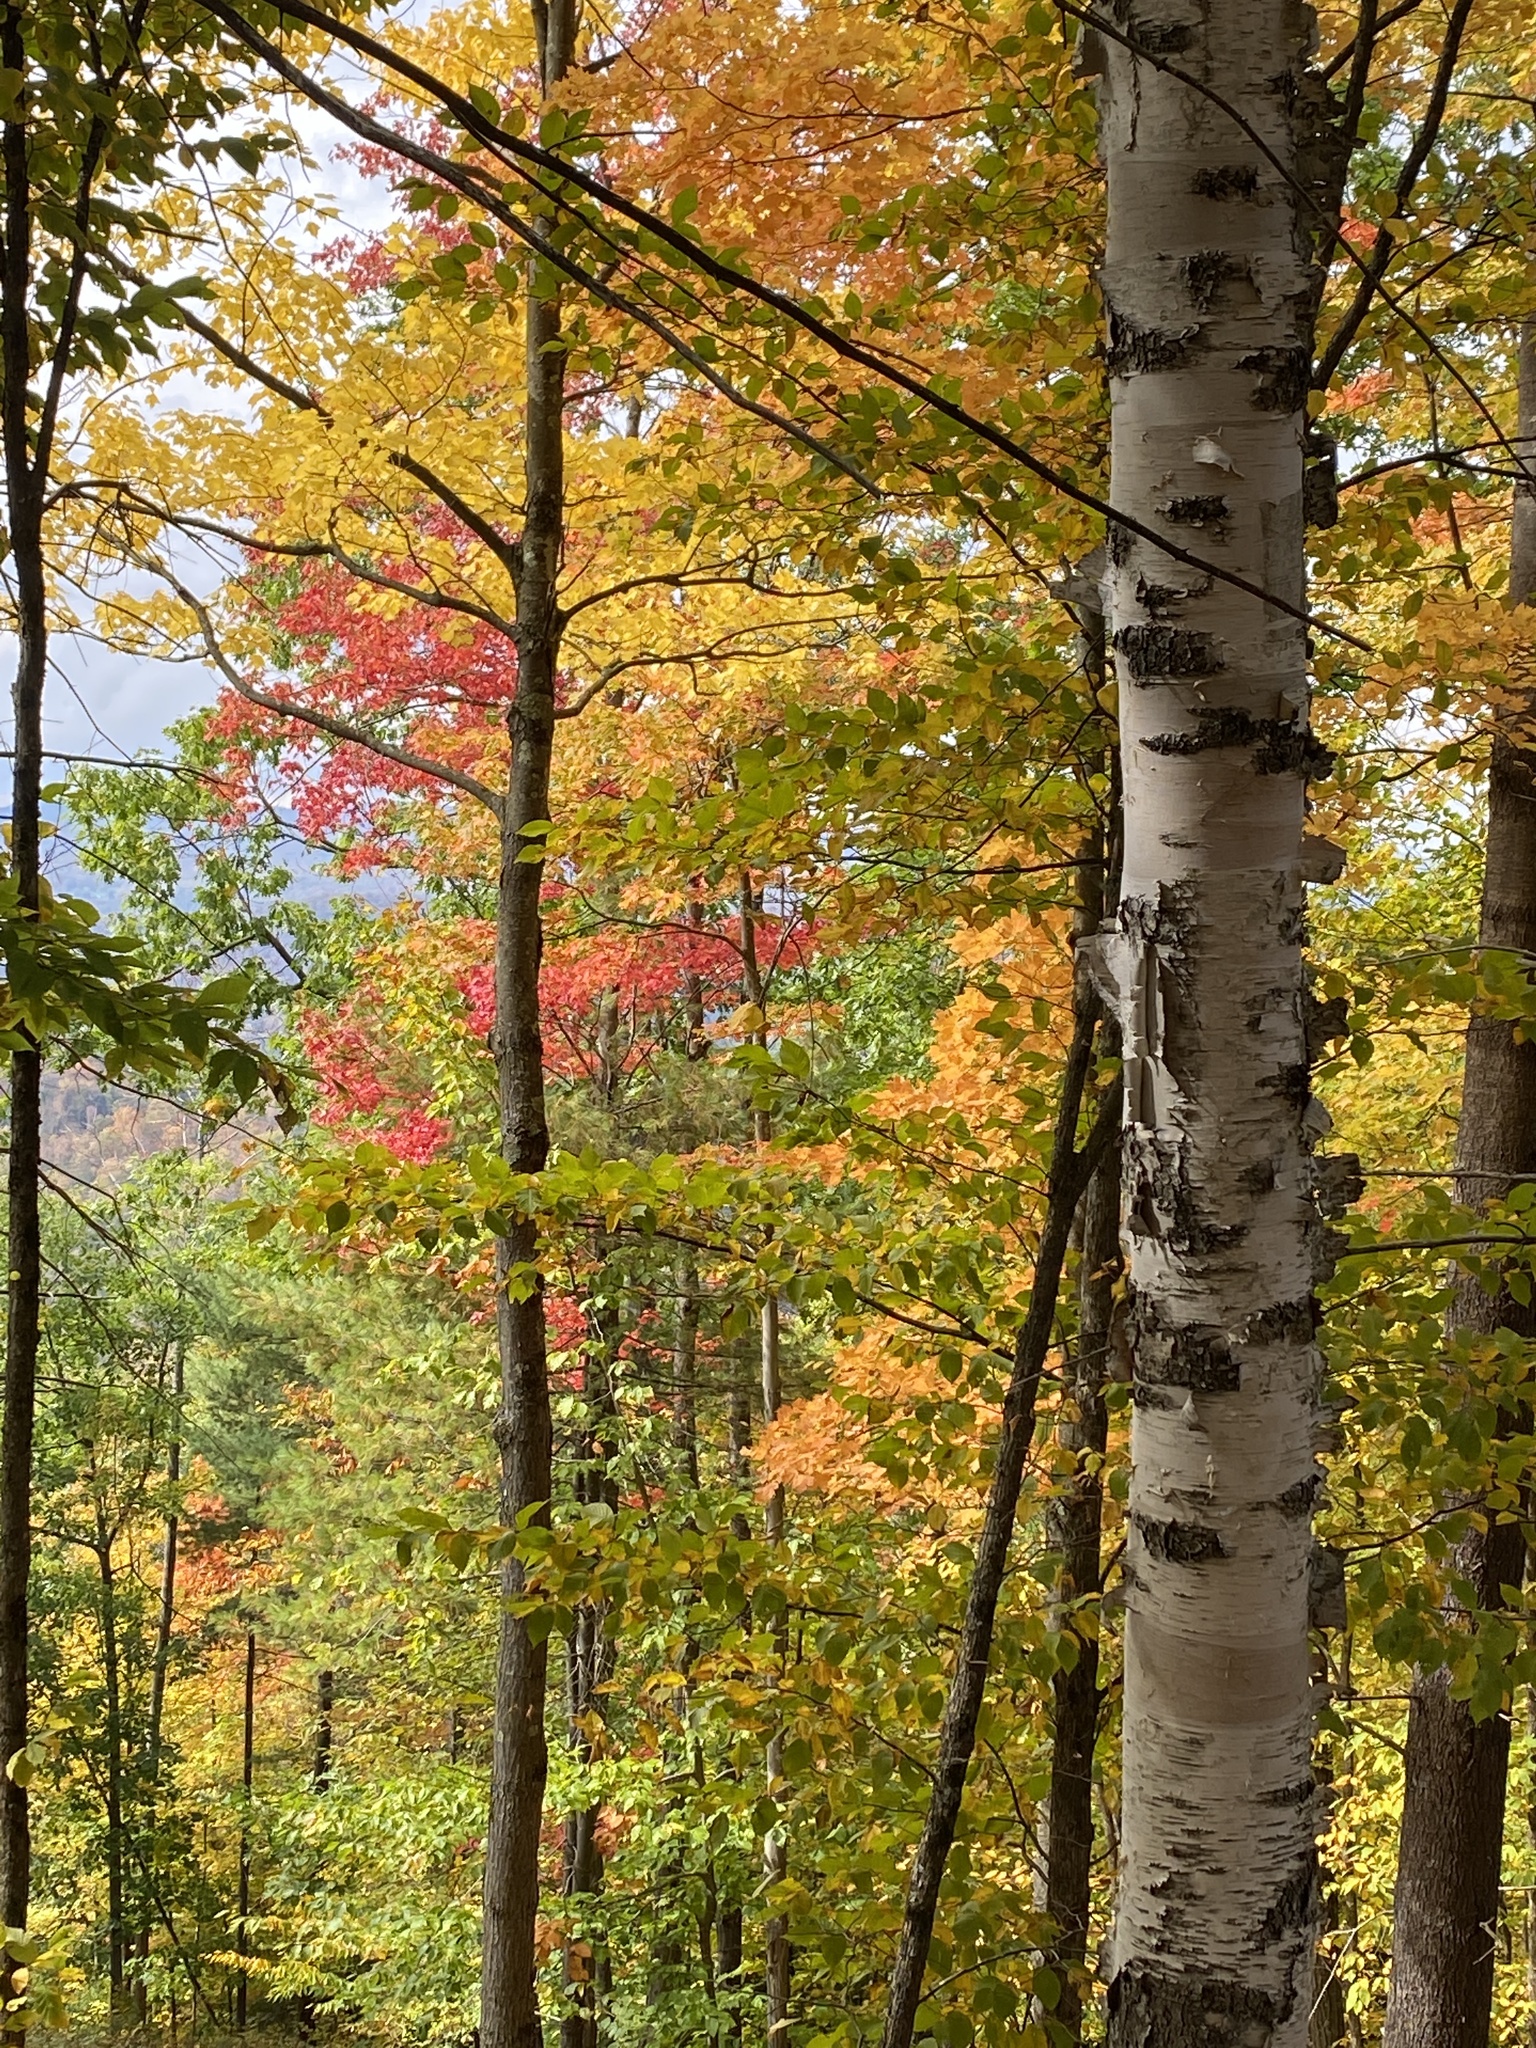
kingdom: Plantae
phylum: Tracheophyta
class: Magnoliopsida
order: Fagales
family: Betulaceae
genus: Betula
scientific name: Betula papyrifera
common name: Paper birch
